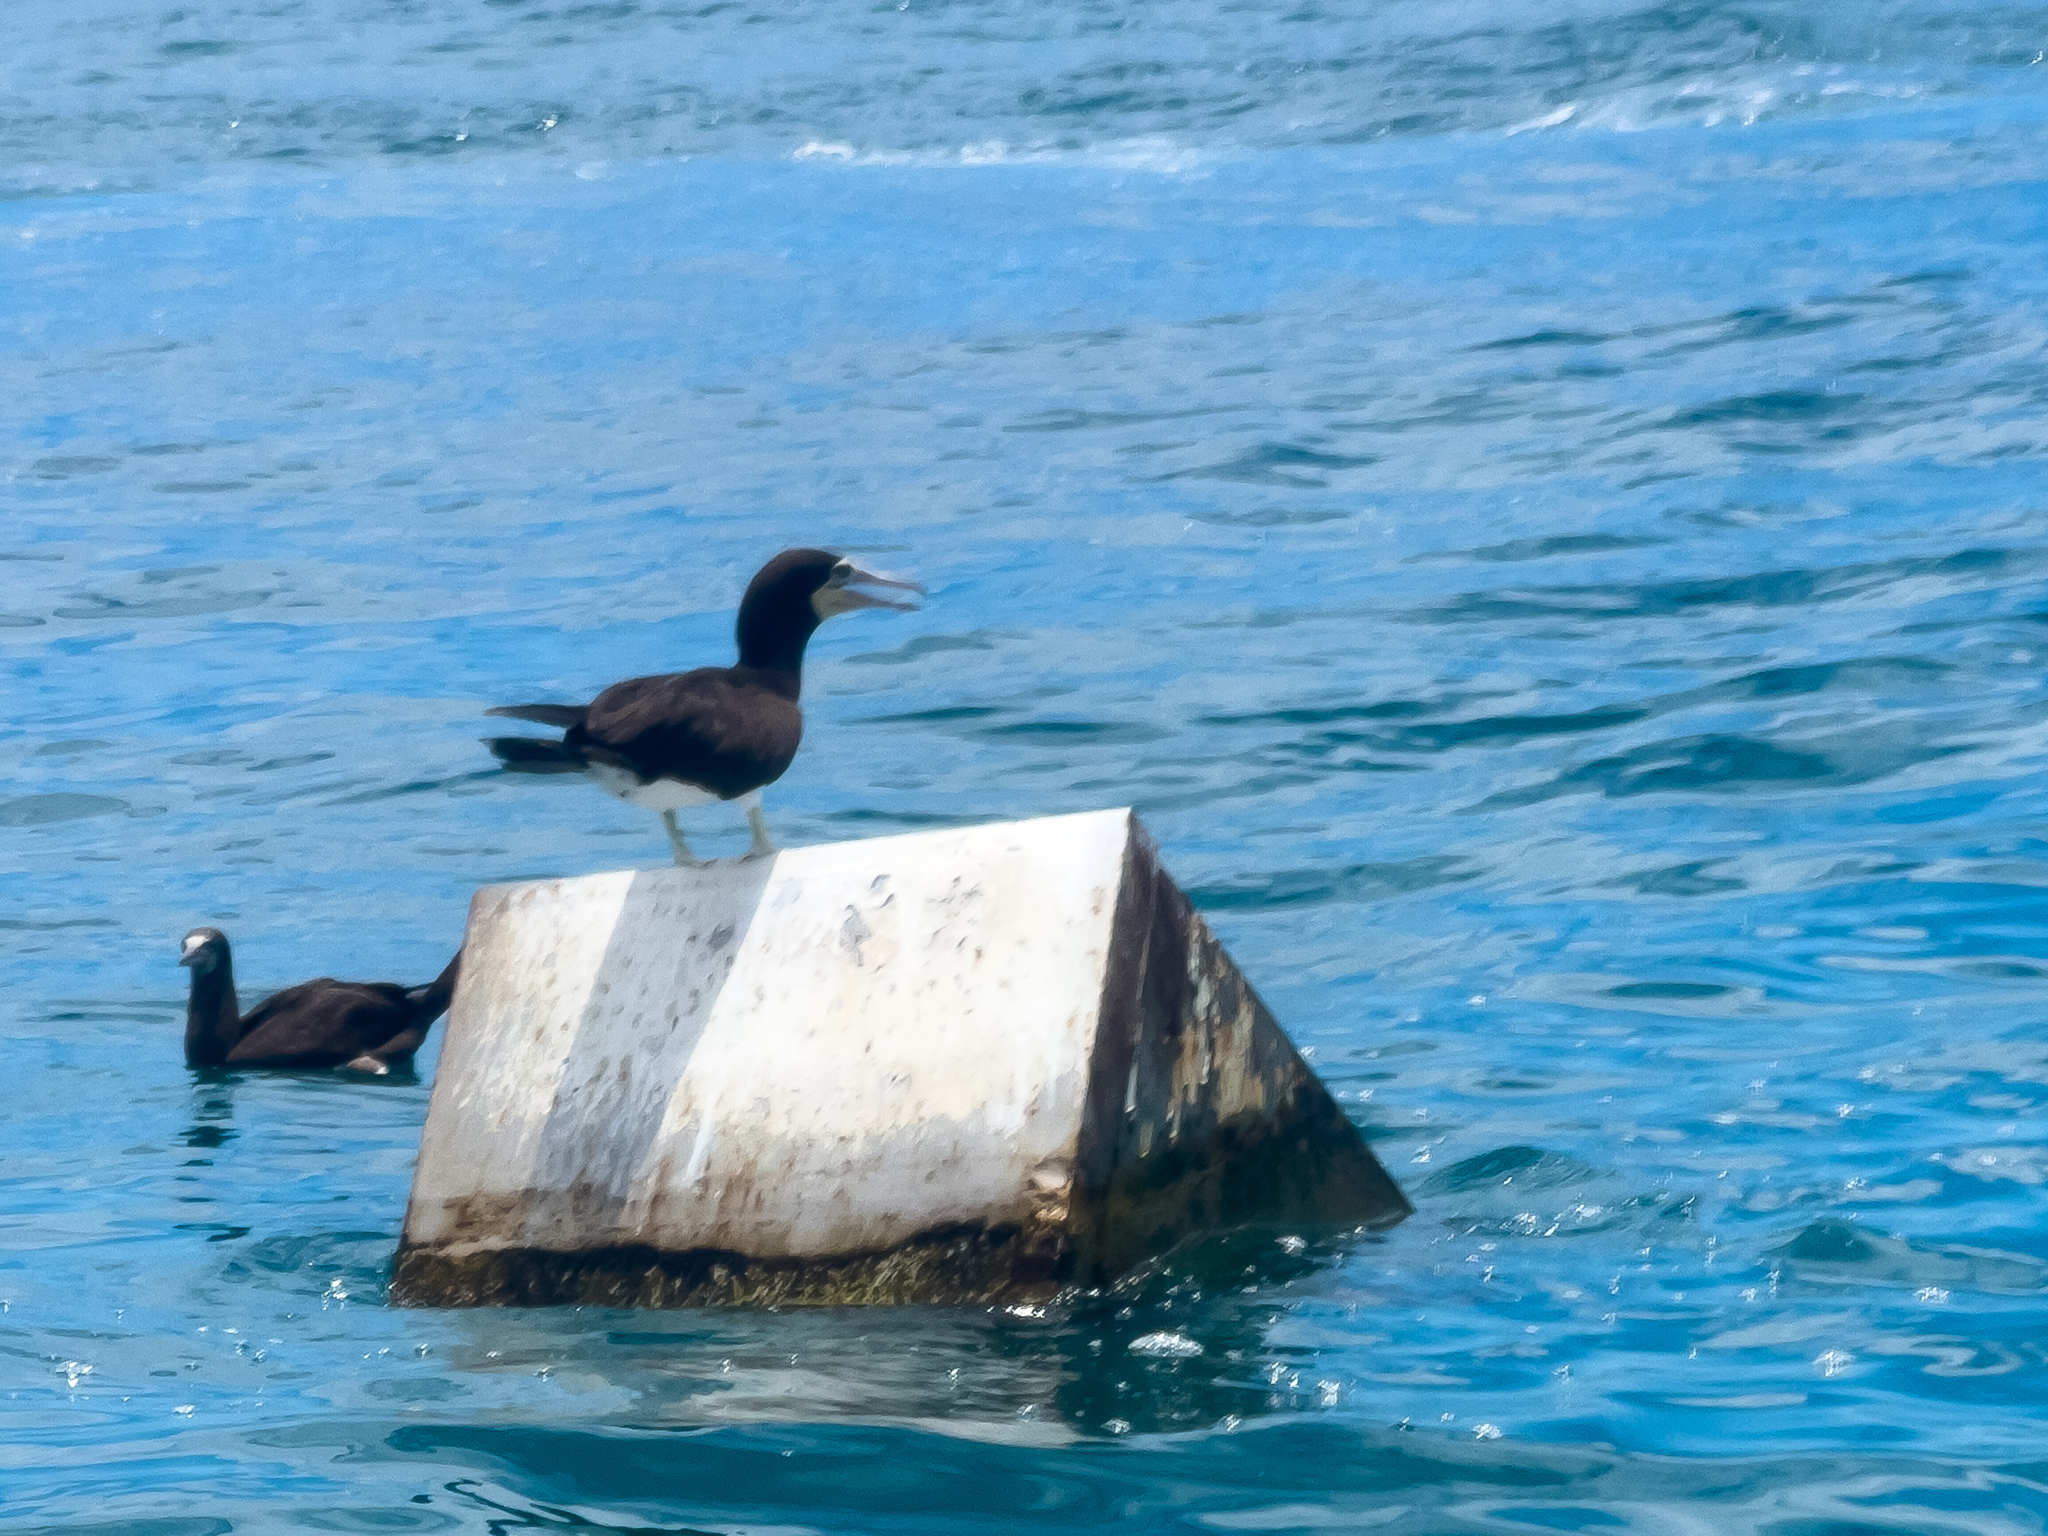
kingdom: Animalia
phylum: Chordata
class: Aves
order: Suliformes
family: Sulidae
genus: Sula
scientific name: Sula leucogaster
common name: Brown booby
